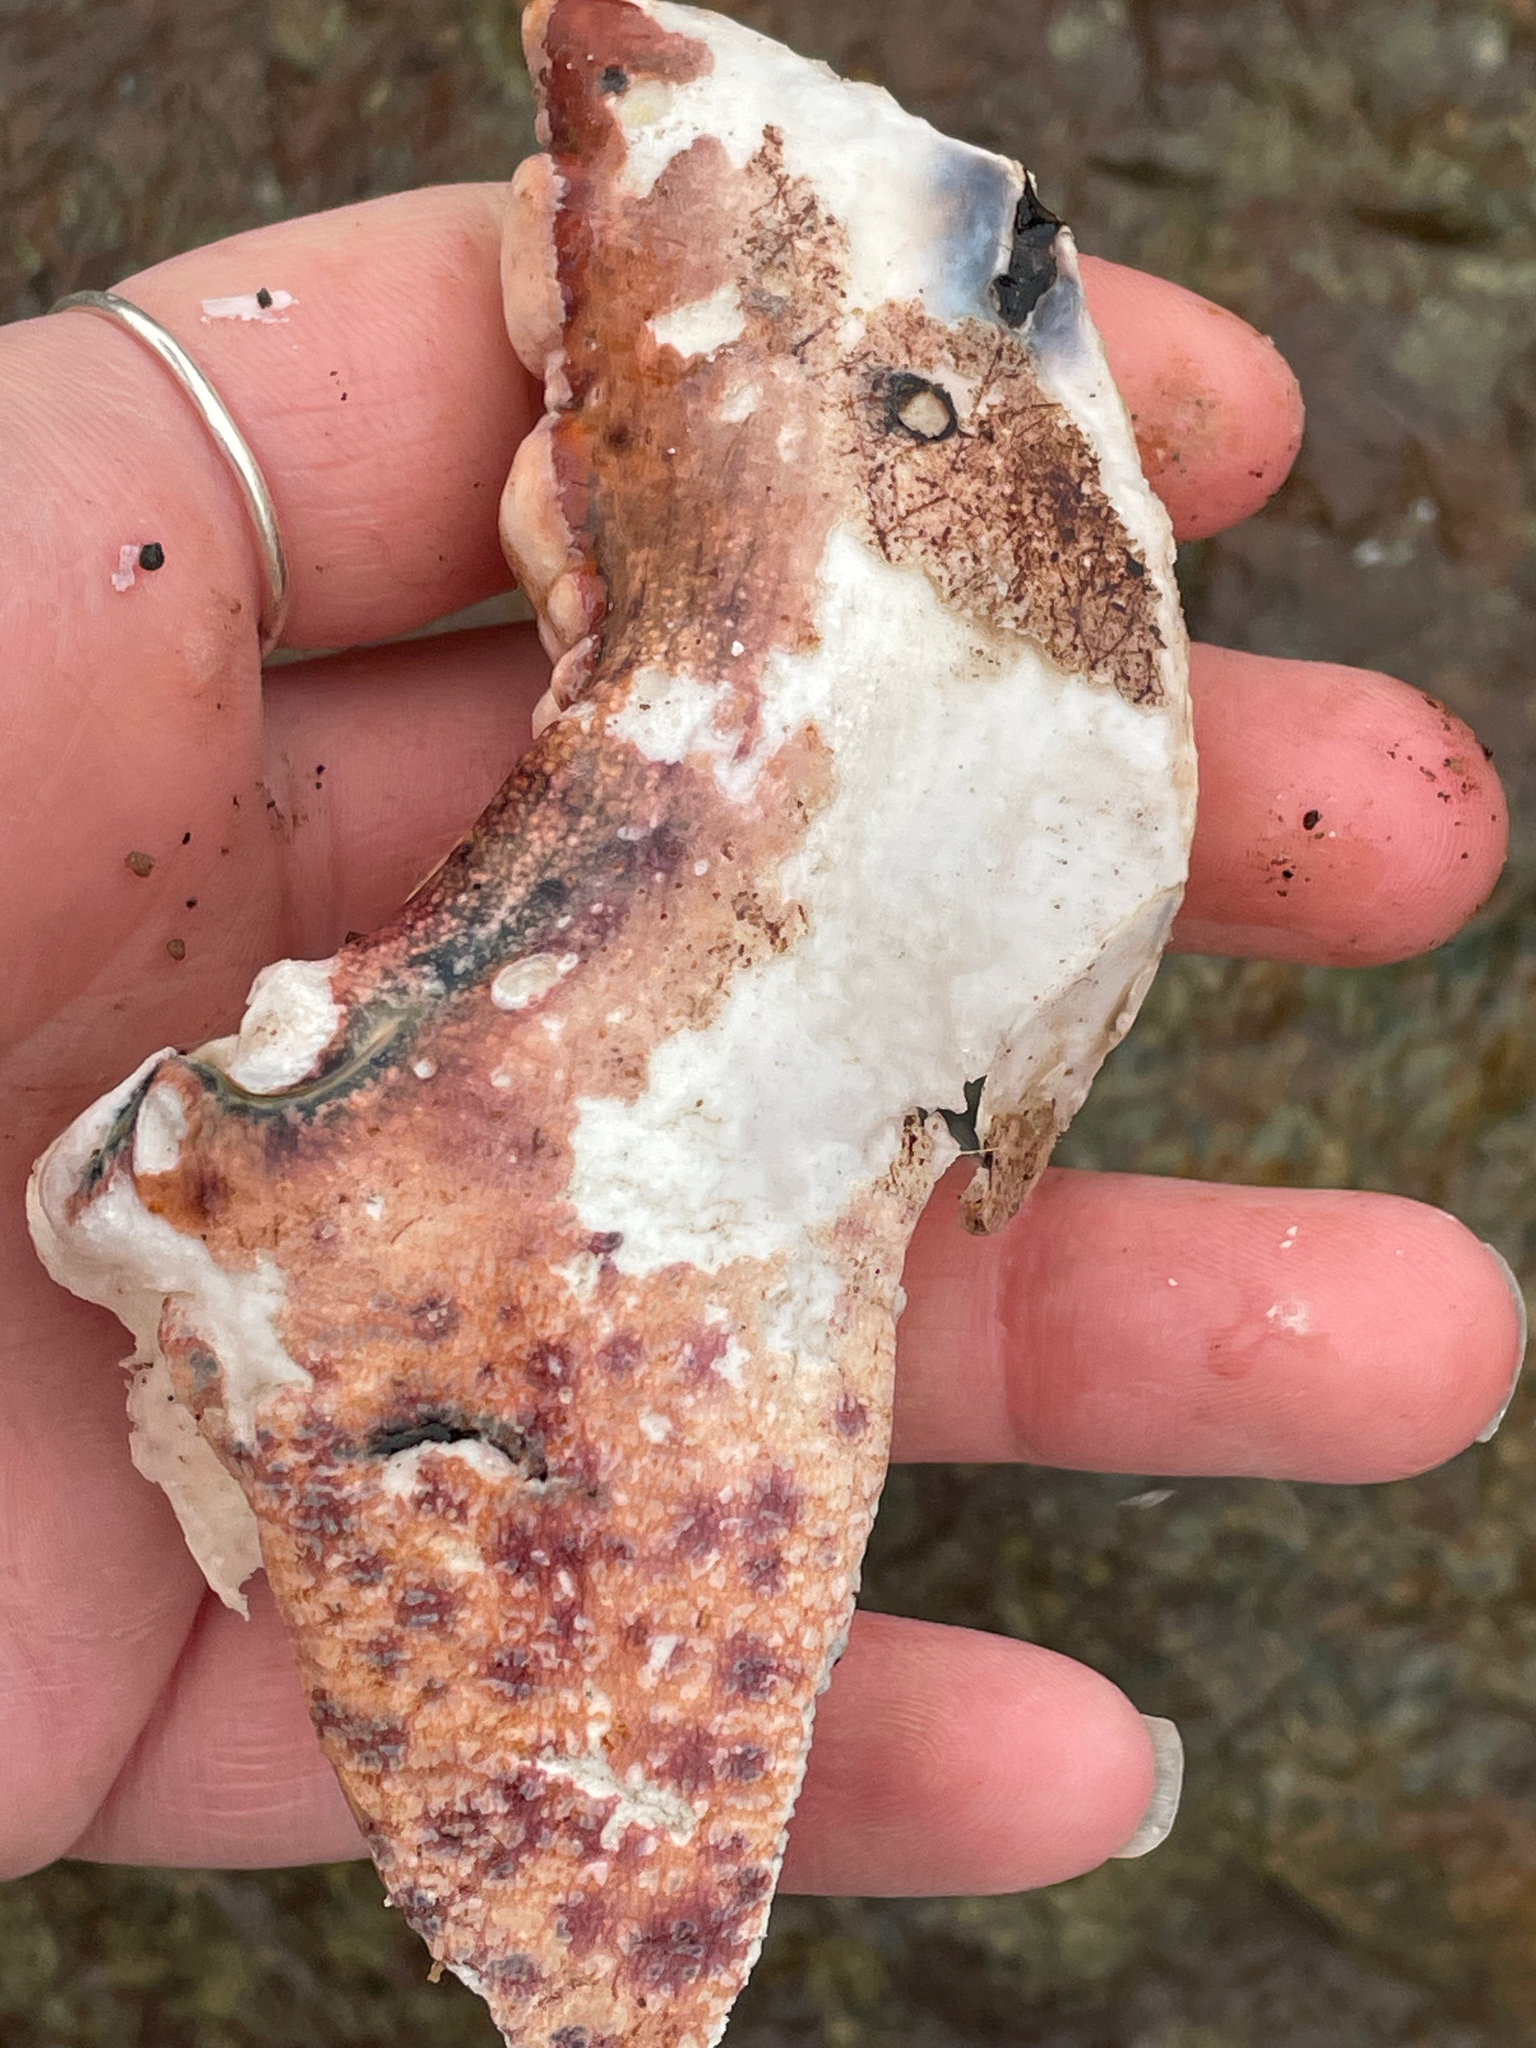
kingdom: Animalia
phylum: Arthropoda
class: Malacostraca
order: Decapoda
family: Nephropidae
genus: Homarus
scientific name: Homarus americanus
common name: American lobster
